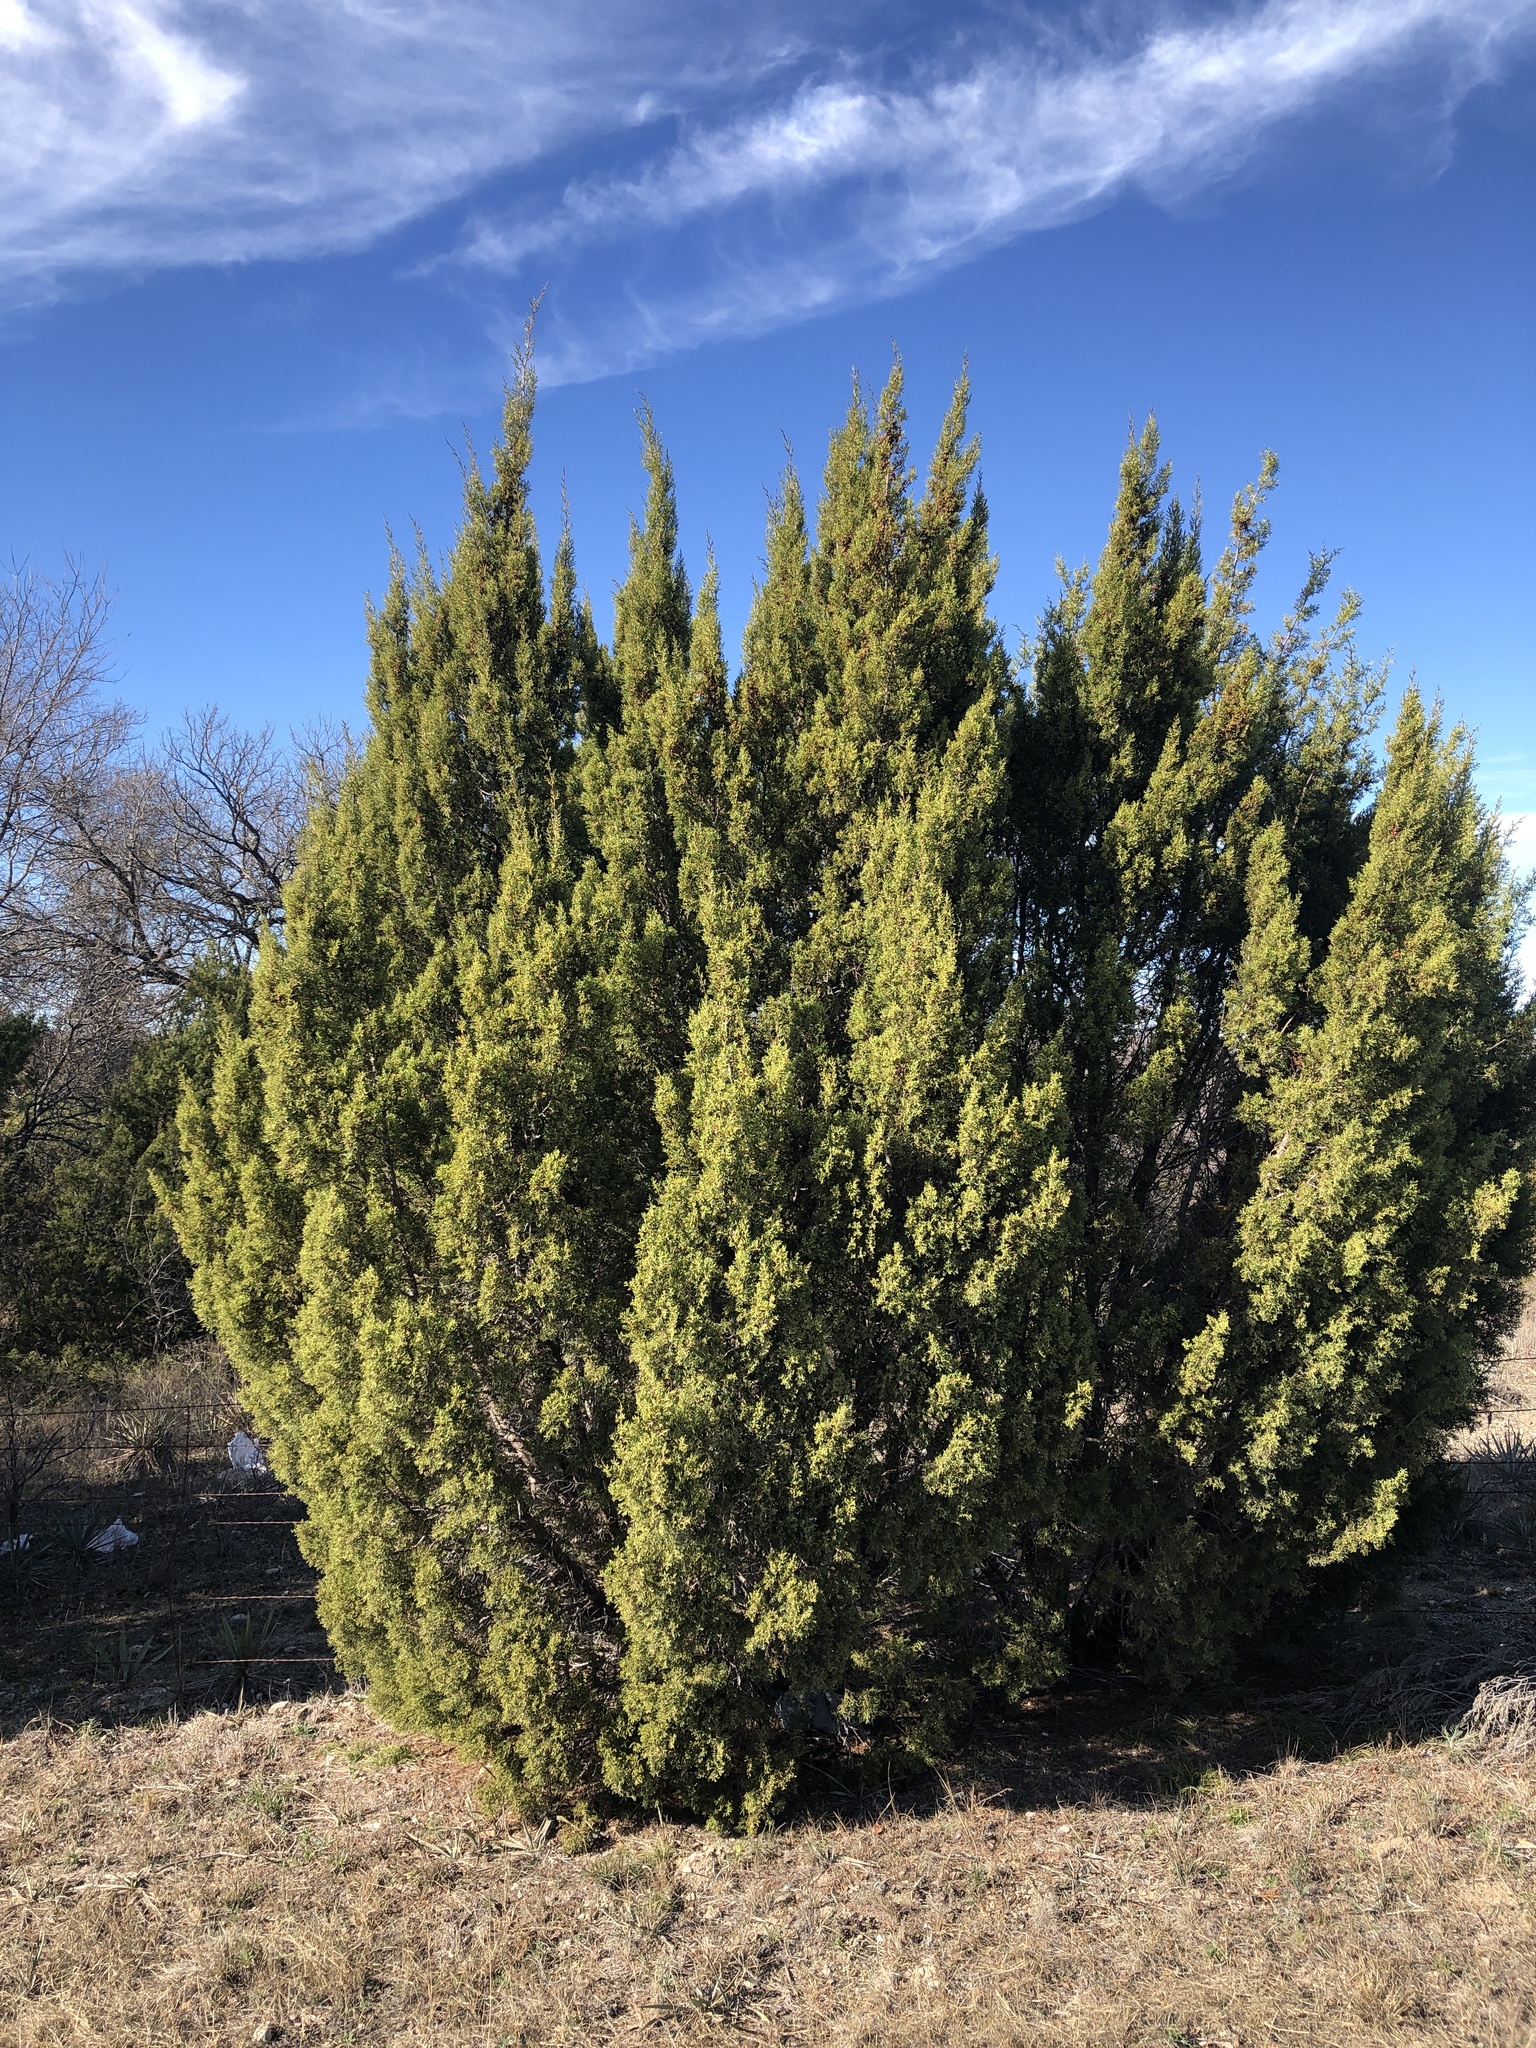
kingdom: Plantae
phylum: Tracheophyta
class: Pinopsida
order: Pinales
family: Cupressaceae
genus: Juniperus
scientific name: Juniperus pinchotii
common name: Pinchot juniper
